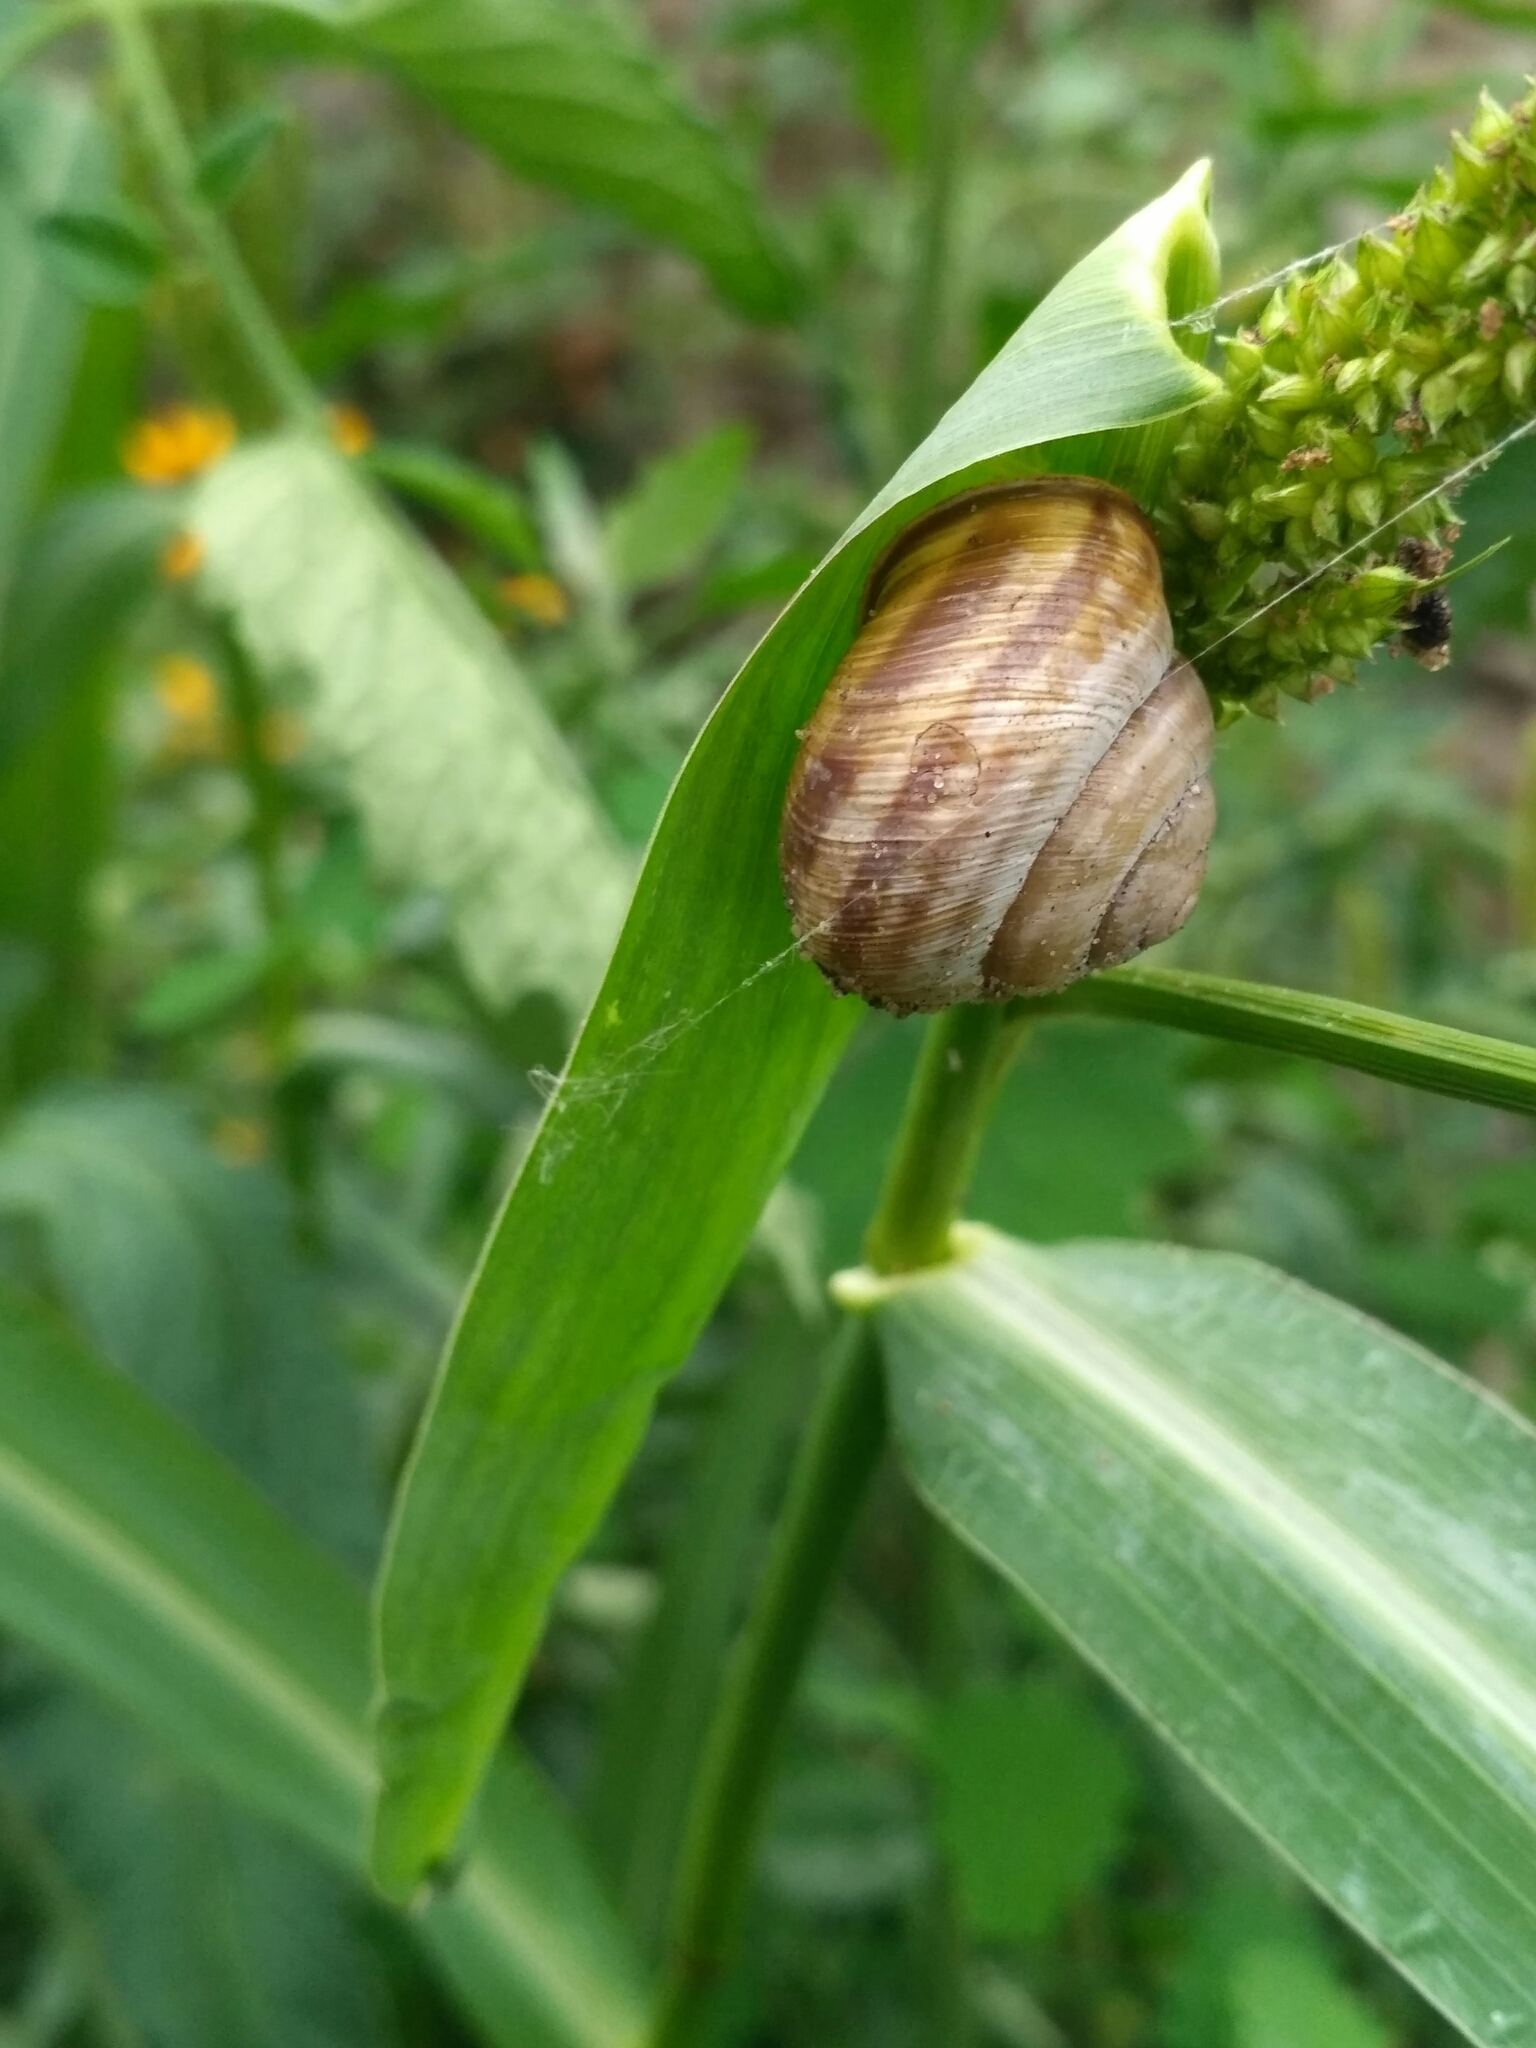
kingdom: Animalia
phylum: Mollusca
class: Gastropoda
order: Stylommatophora
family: Helicidae
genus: Caucasotachea
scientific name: Caucasotachea vindobonensis
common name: European helicid land snail
